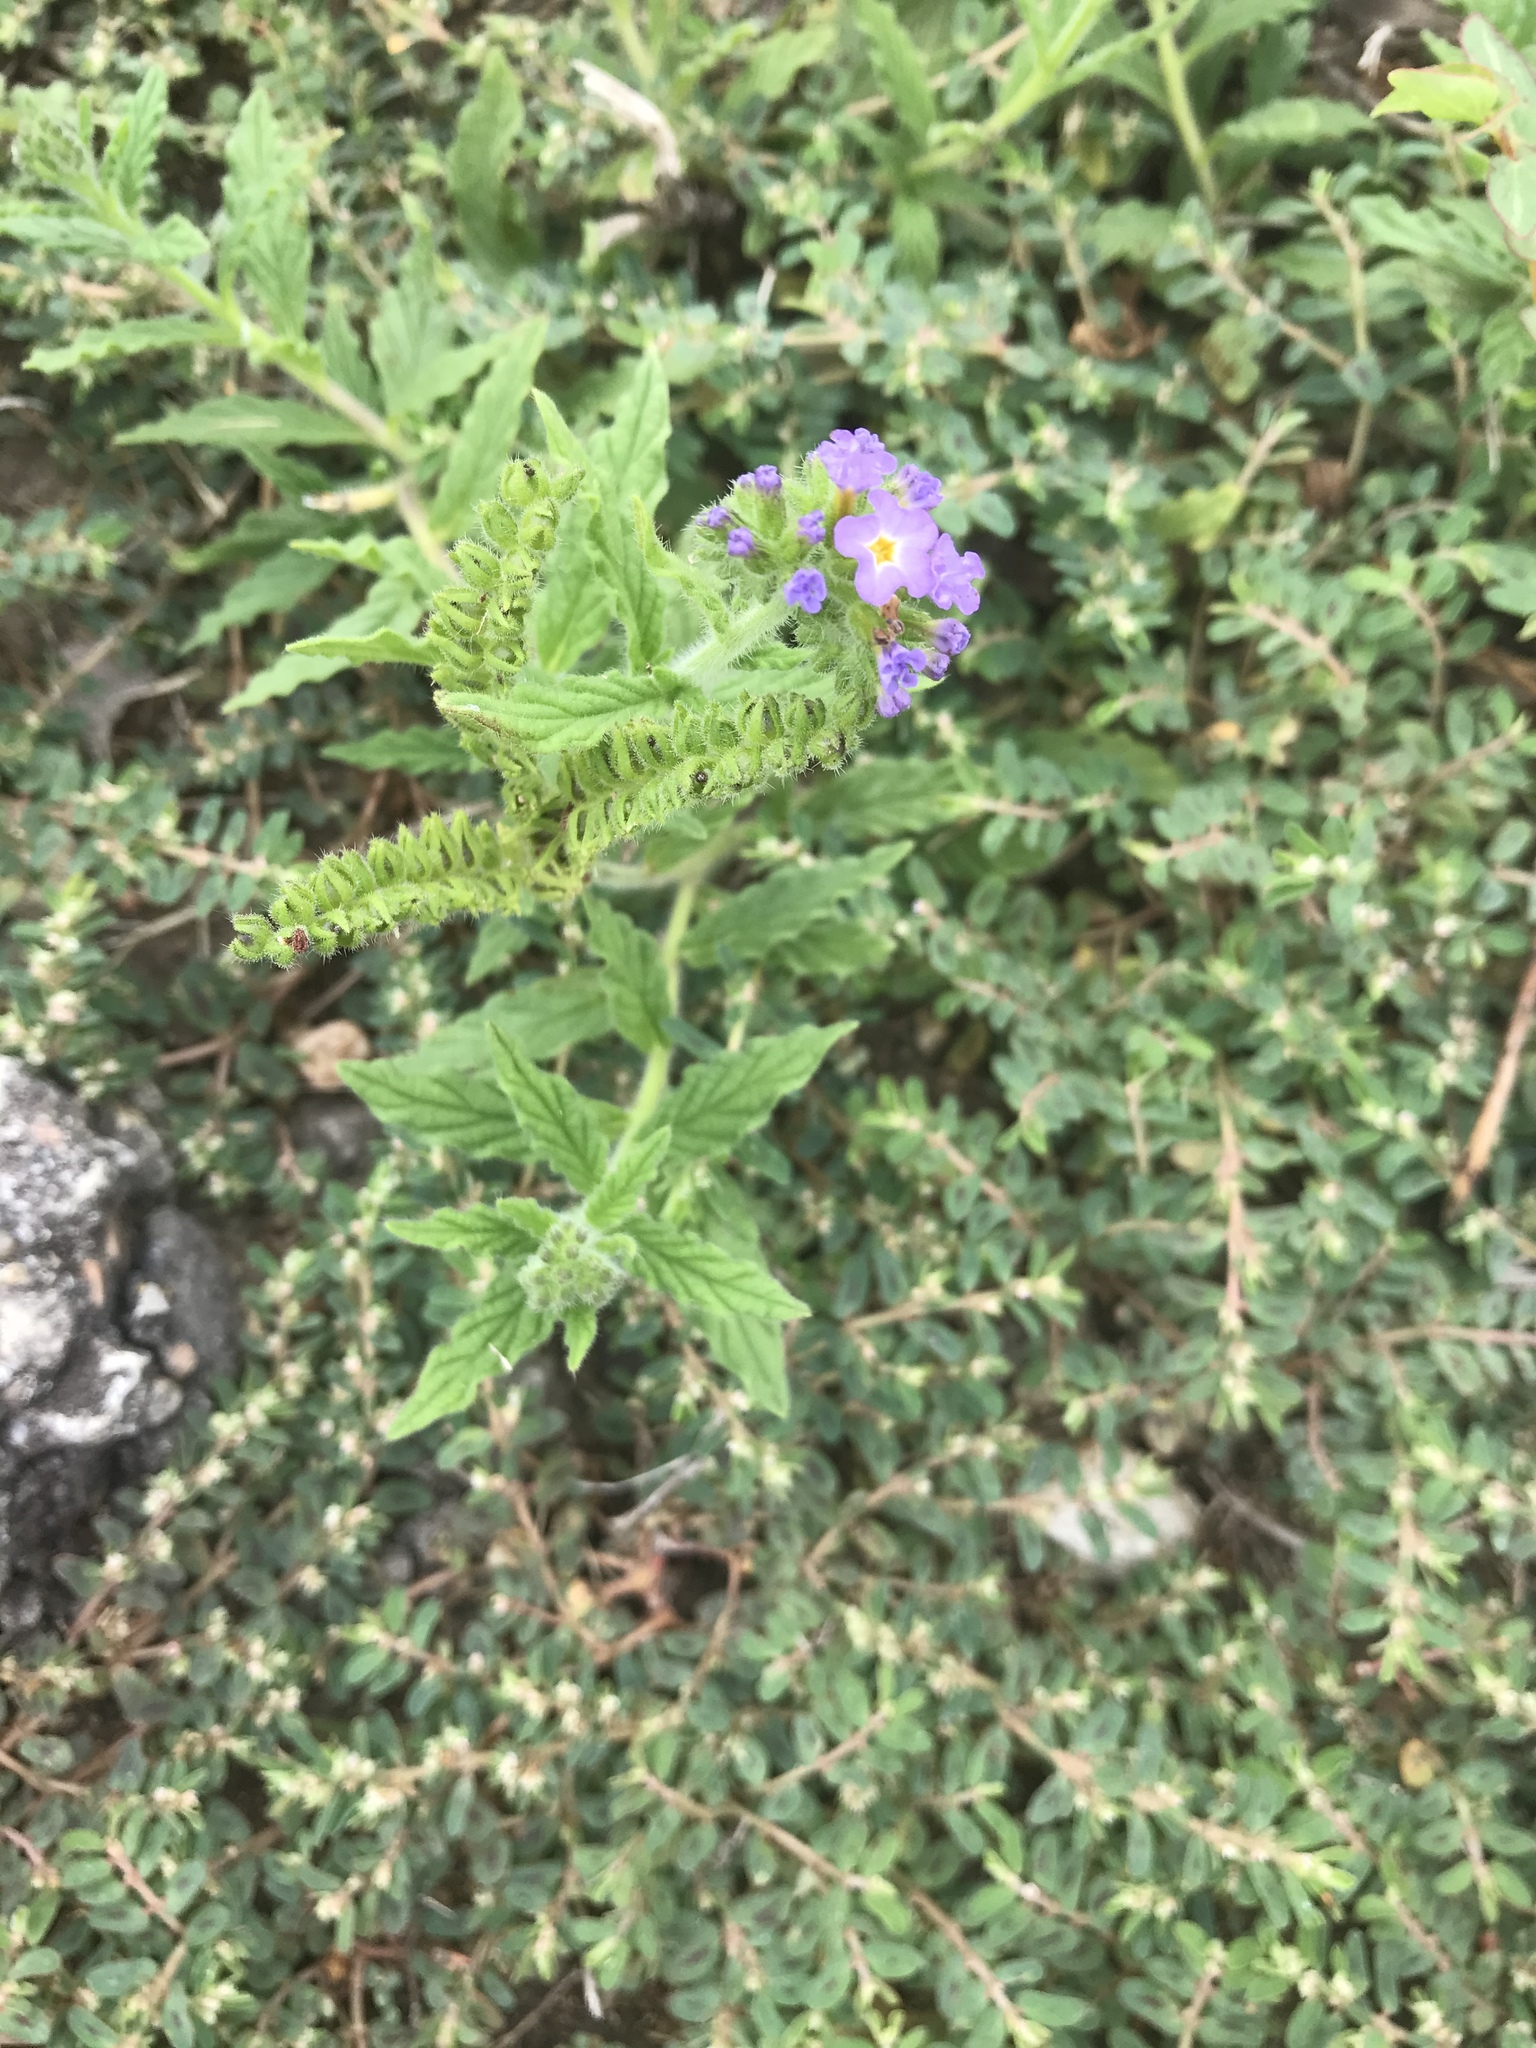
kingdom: Plantae
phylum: Tracheophyta
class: Magnoliopsida
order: Boraginales
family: Heliotropiaceae
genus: Heliotropium
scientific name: Heliotropium amplexicaule
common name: Clasping heliotrope
